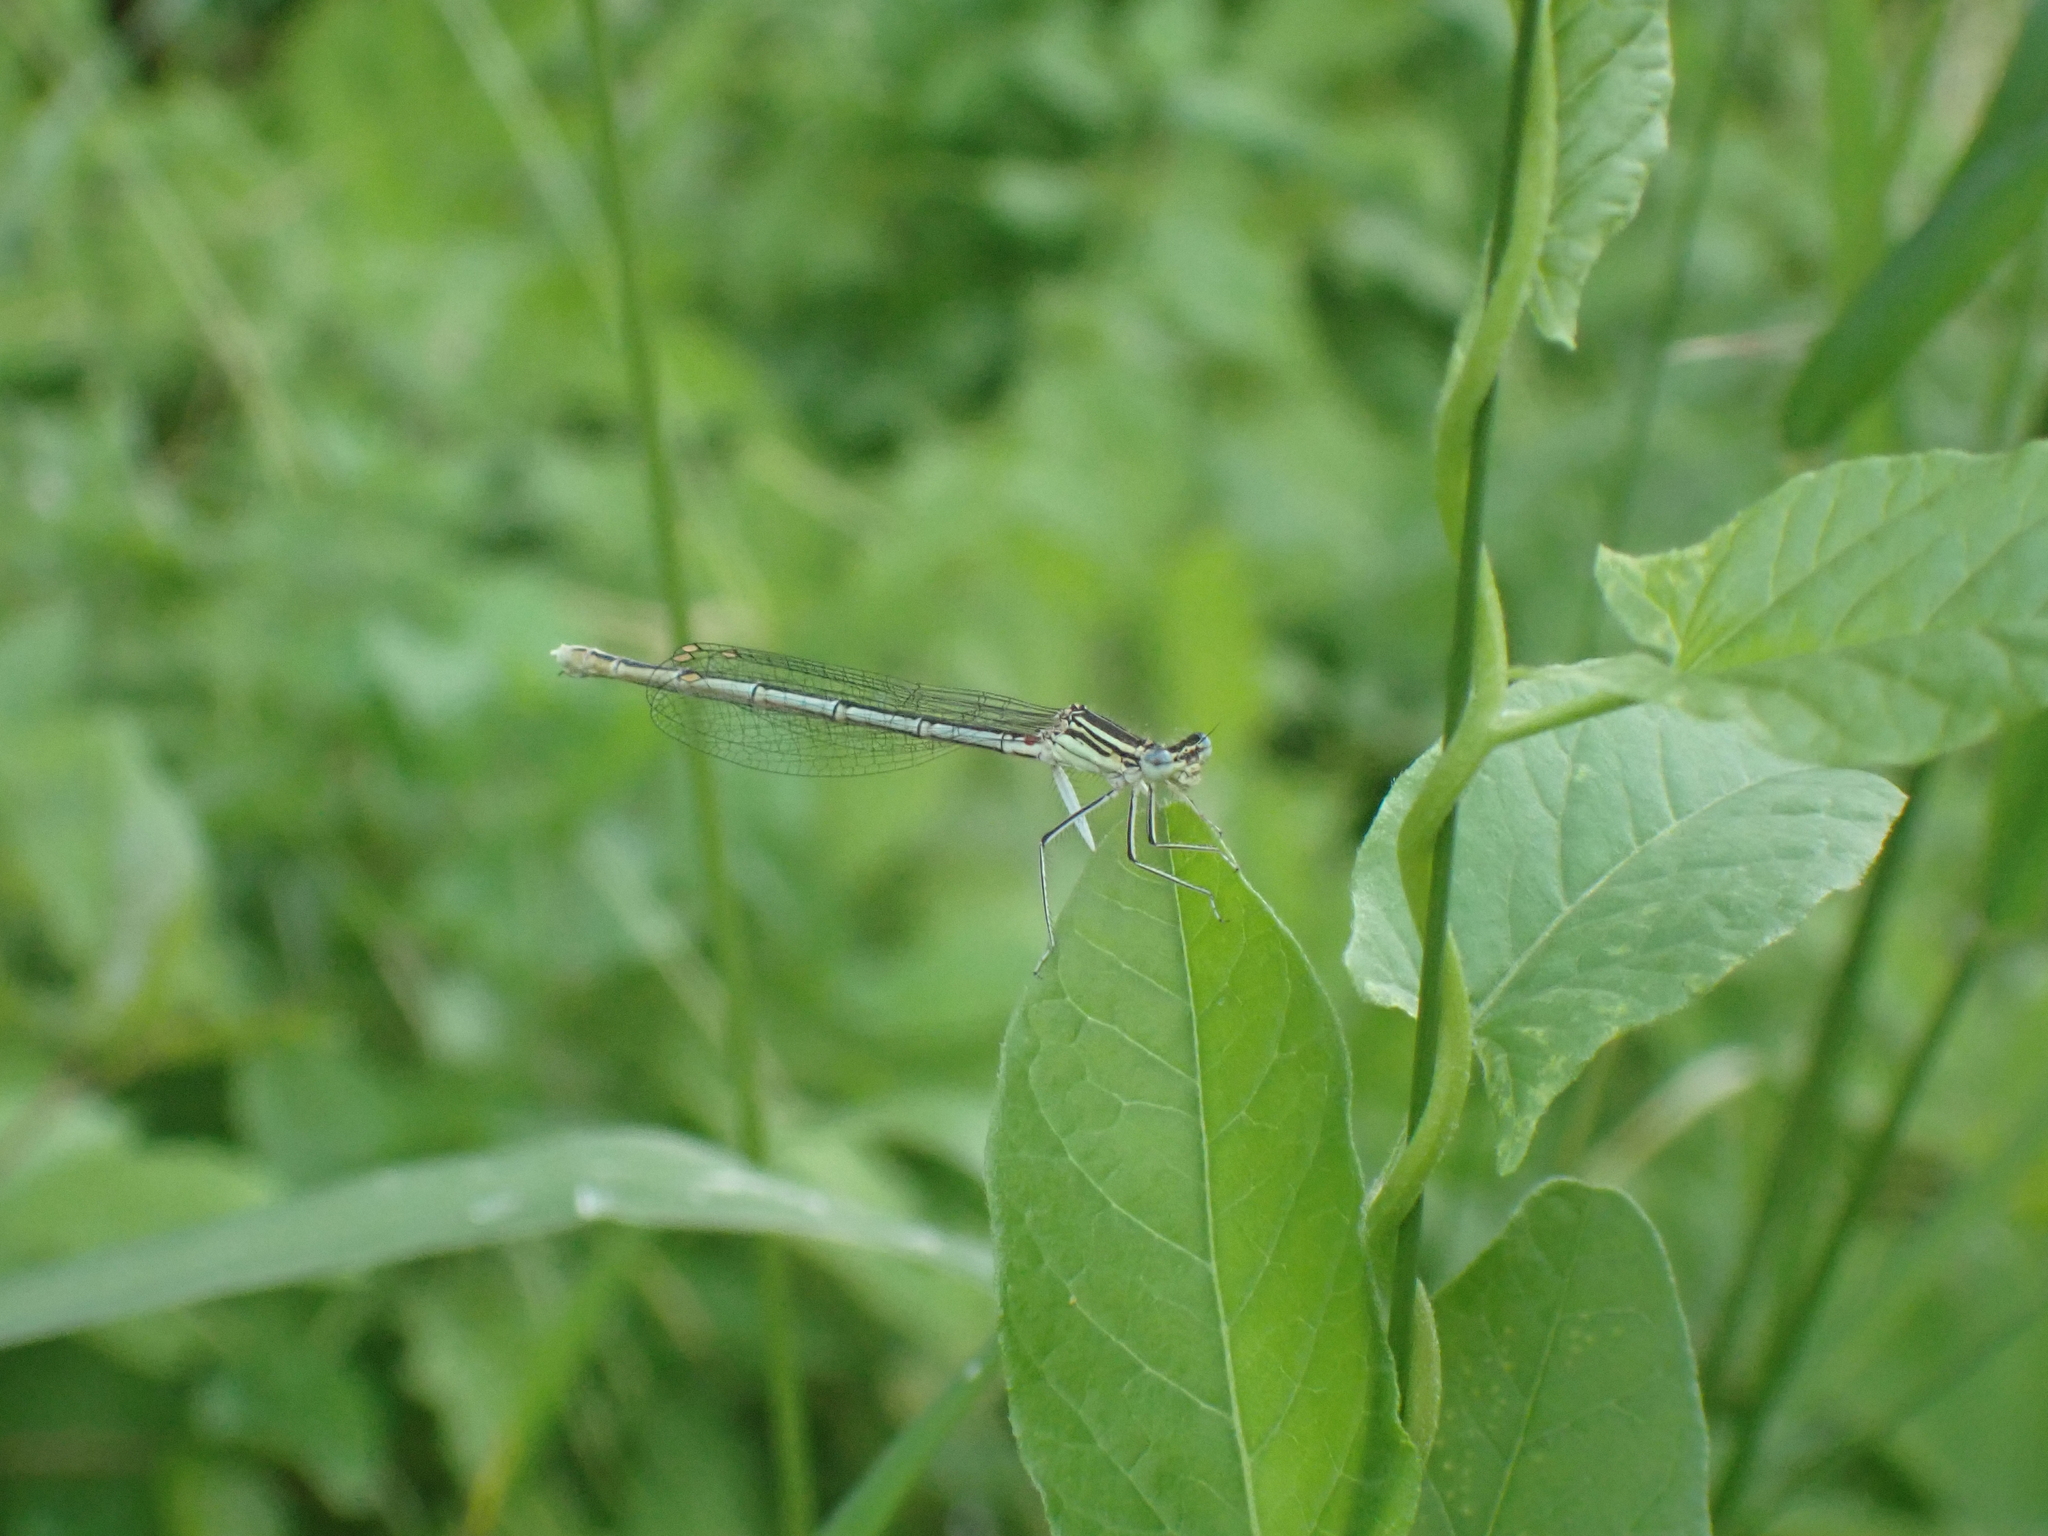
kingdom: Animalia
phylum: Arthropoda
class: Insecta
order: Odonata
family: Platycnemididae
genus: Platycnemis
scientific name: Platycnemis pennipes
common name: White-legged damselfly
